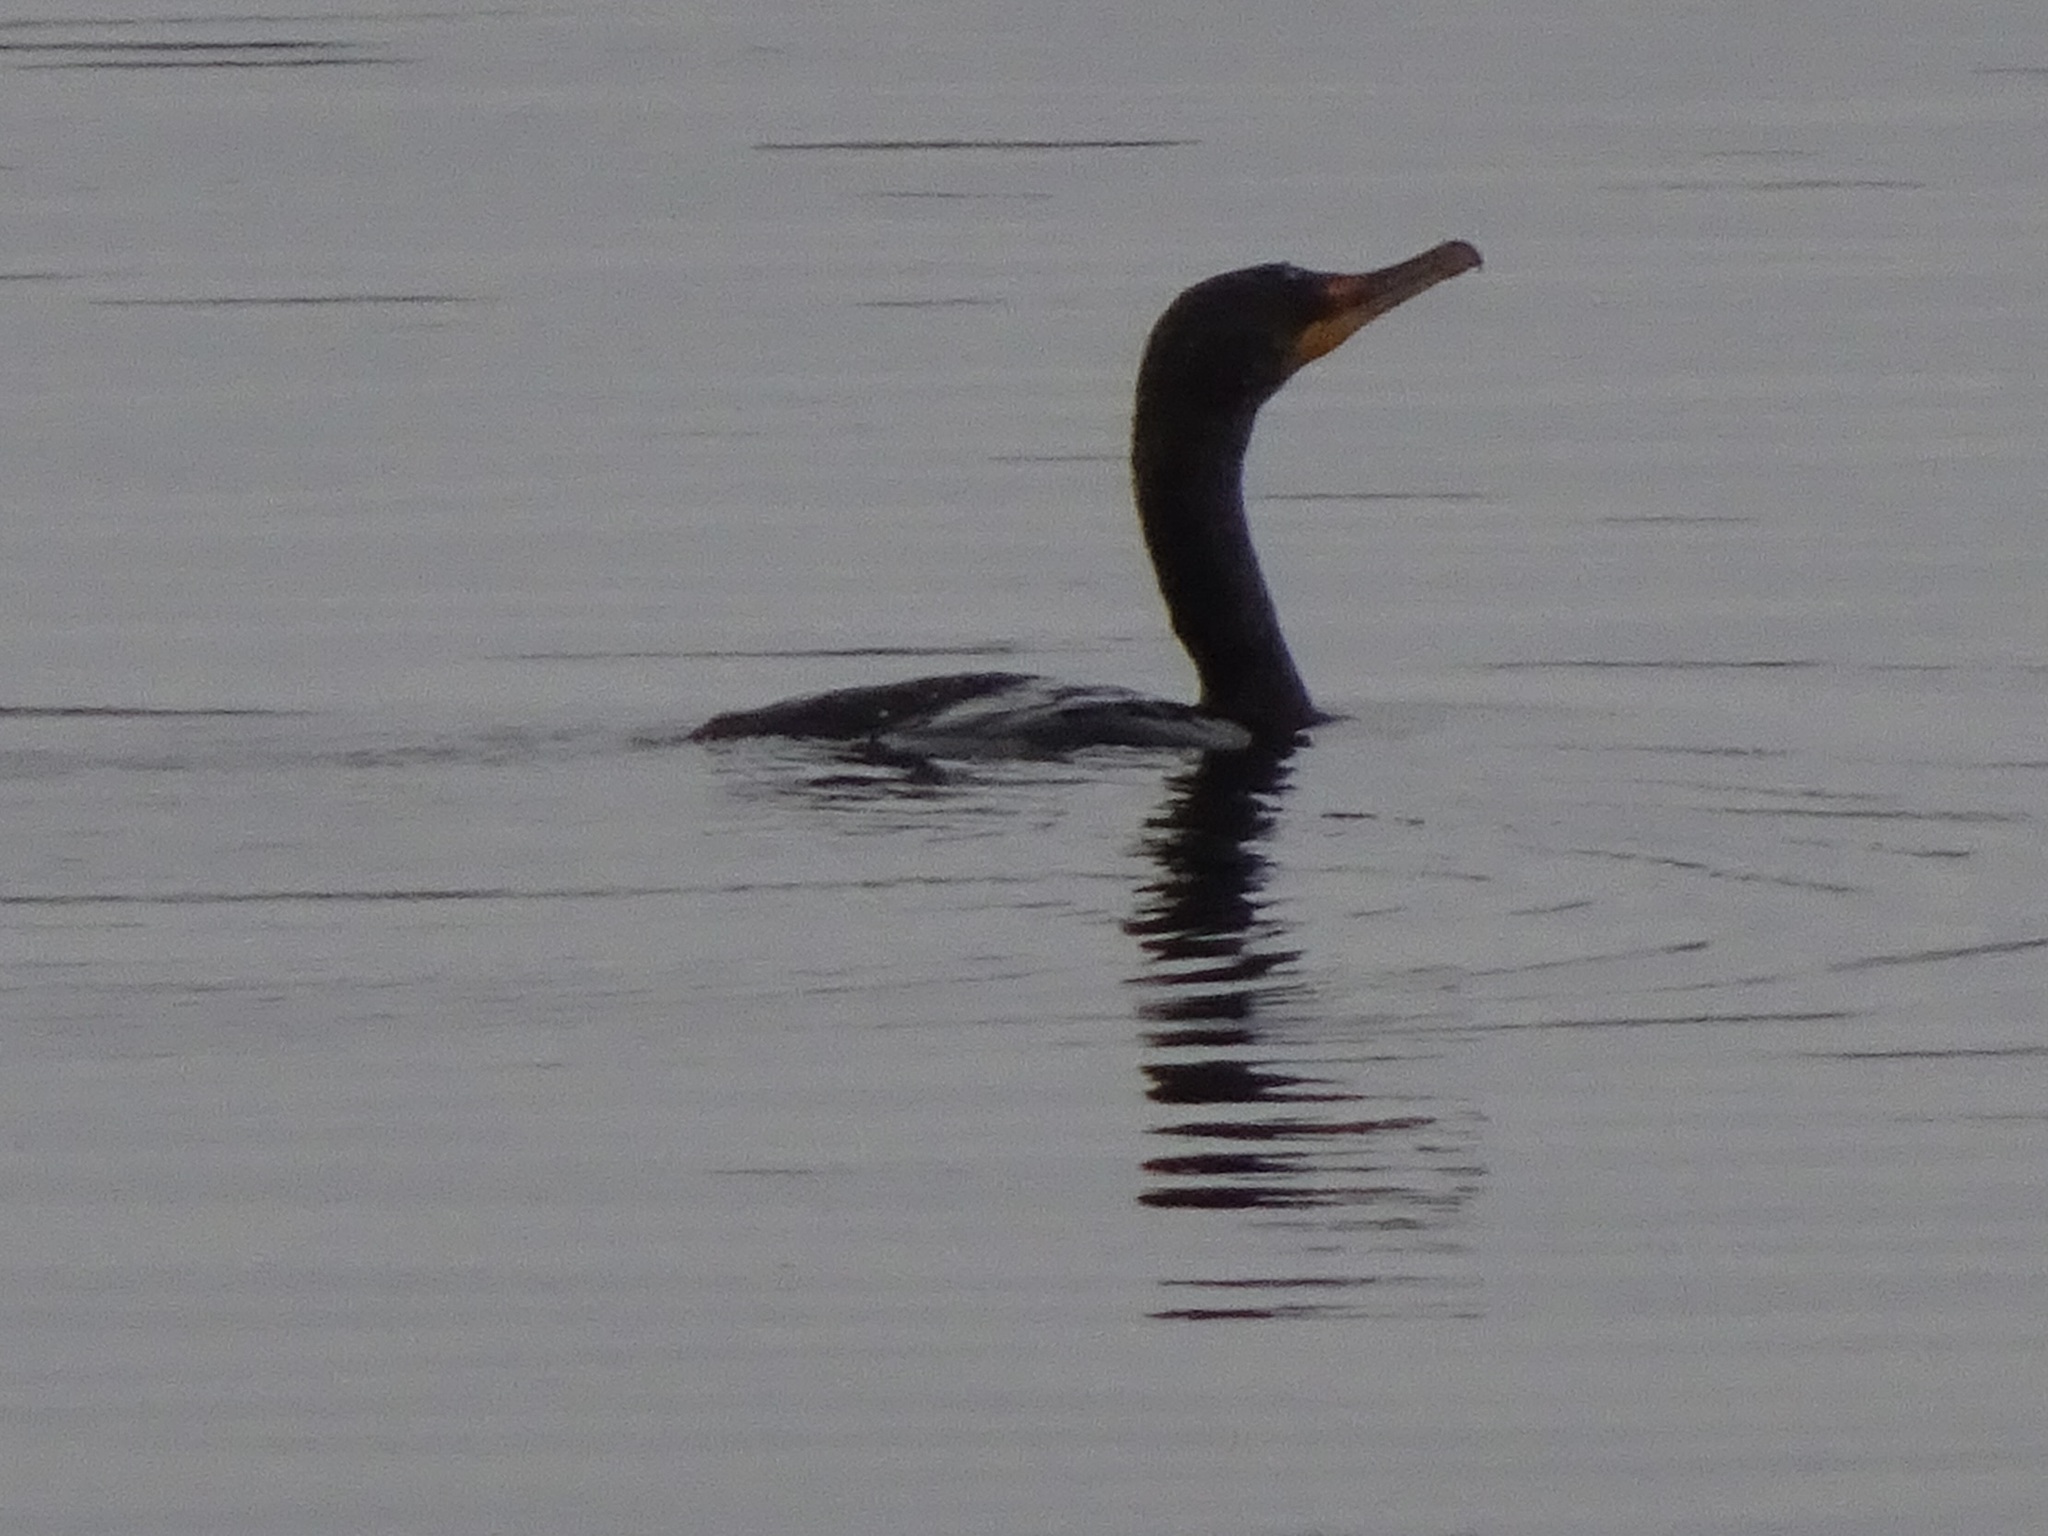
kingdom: Animalia
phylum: Chordata
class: Aves
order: Suliformes
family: Phalacrocoracidae
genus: Phalacrocorax
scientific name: Phalacrocorax auritus
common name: Double-crested cormorant
